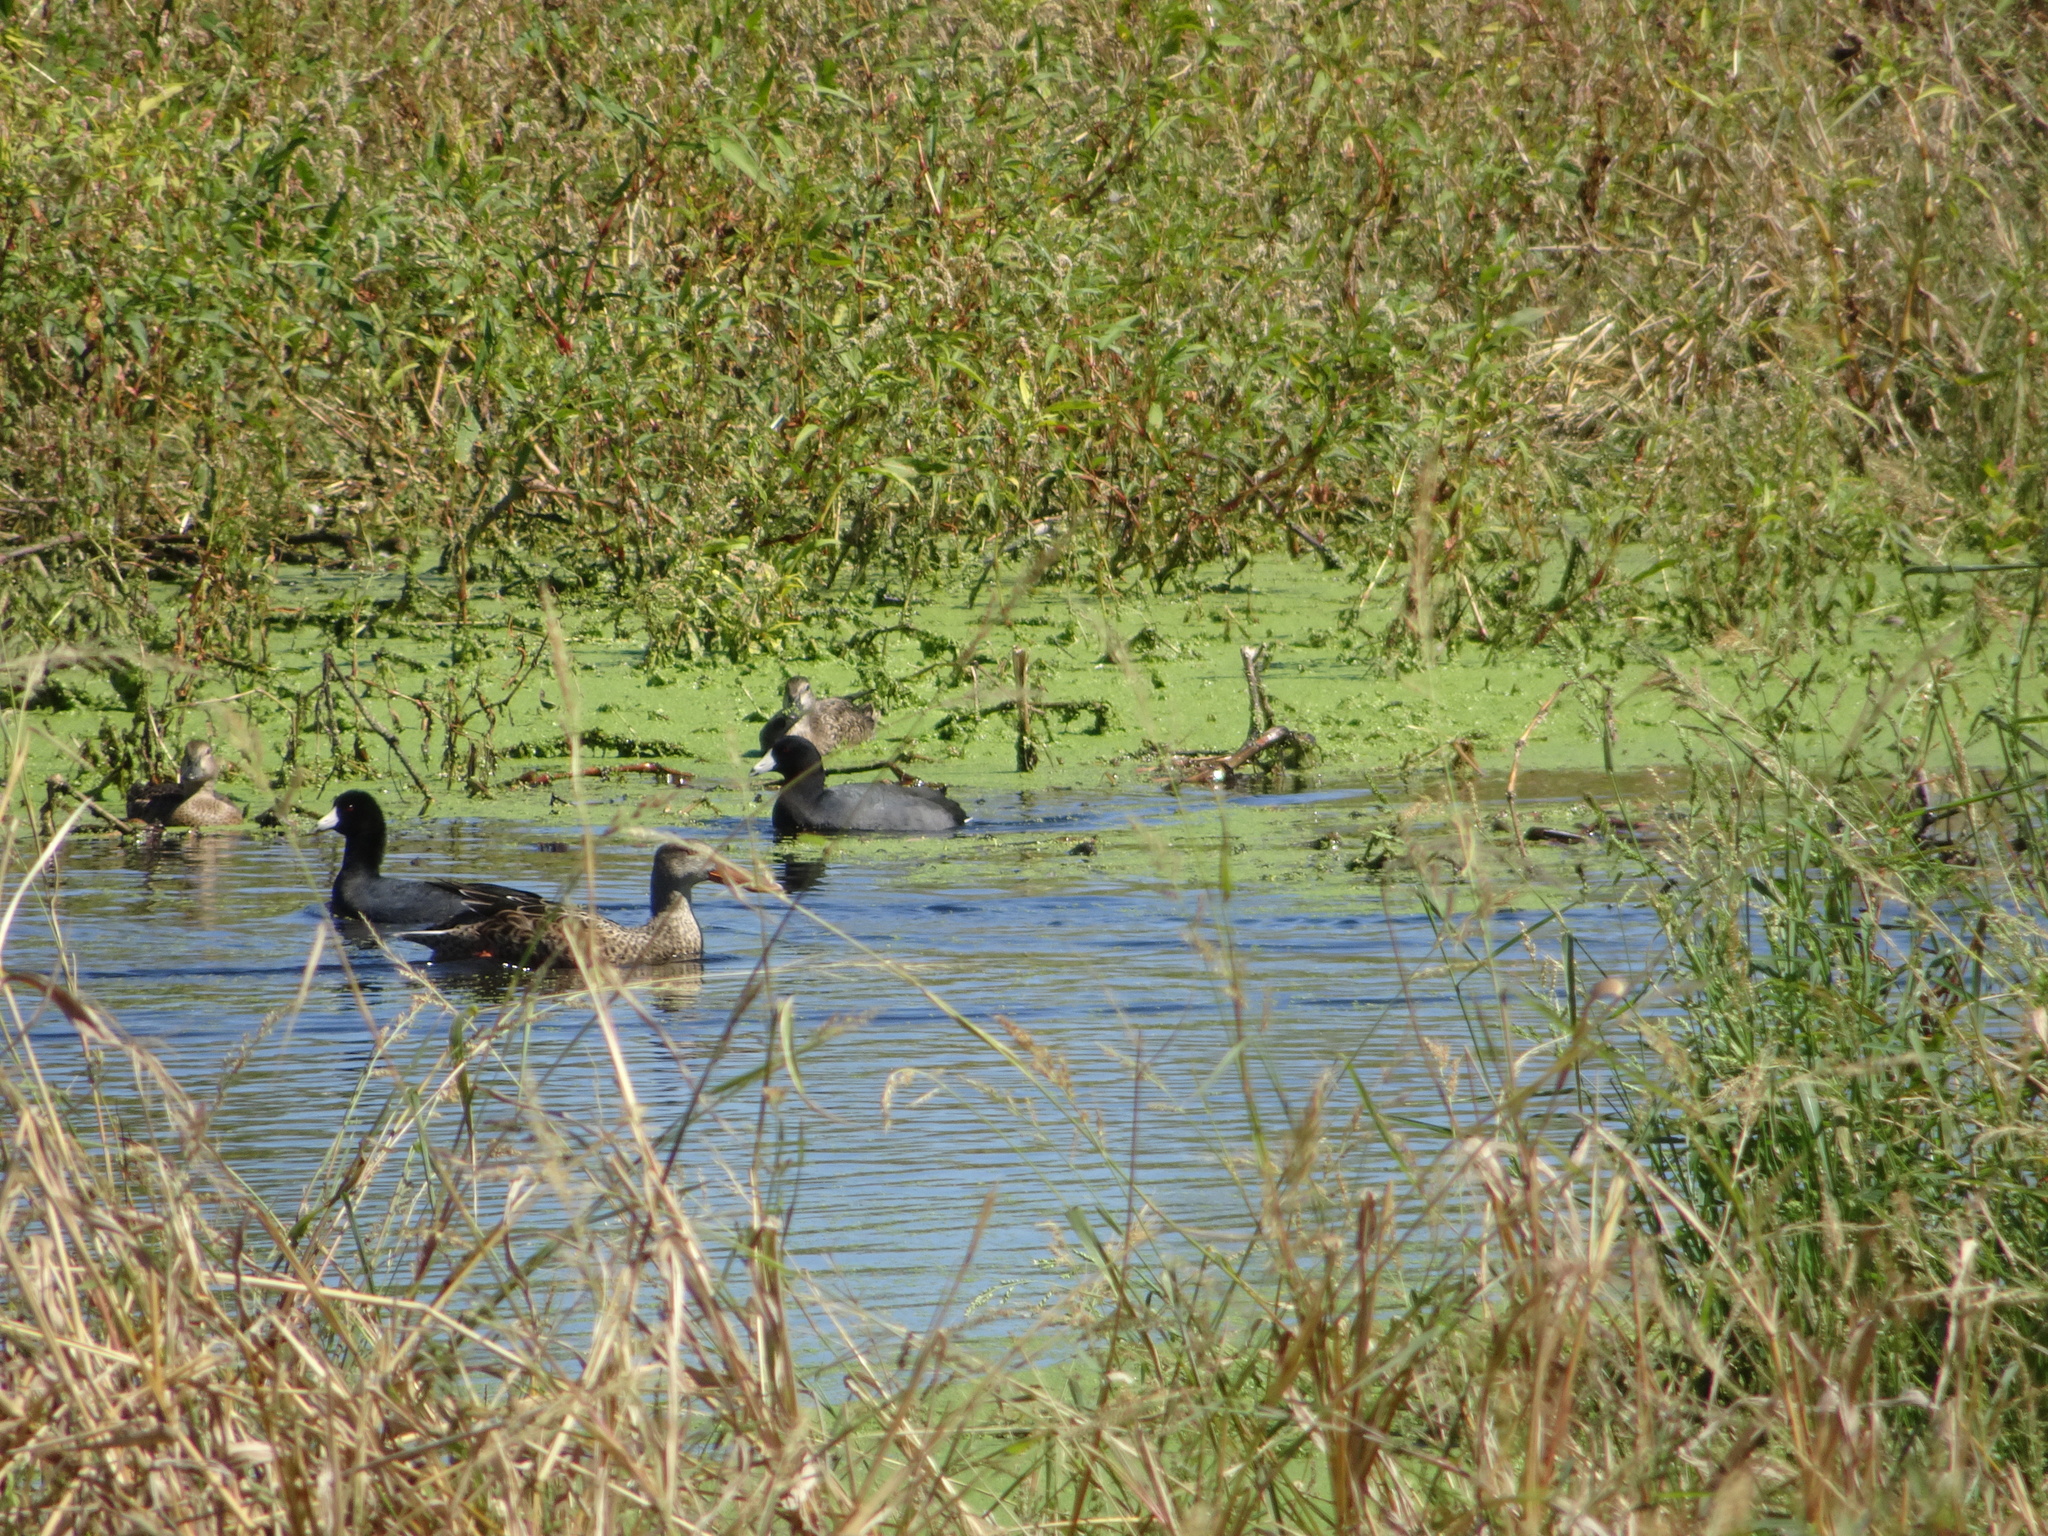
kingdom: Animalia
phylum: Chordata
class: Aves
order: Gruiformes
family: Rallidae
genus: Fulica
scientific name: Fulica americana
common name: American coot
